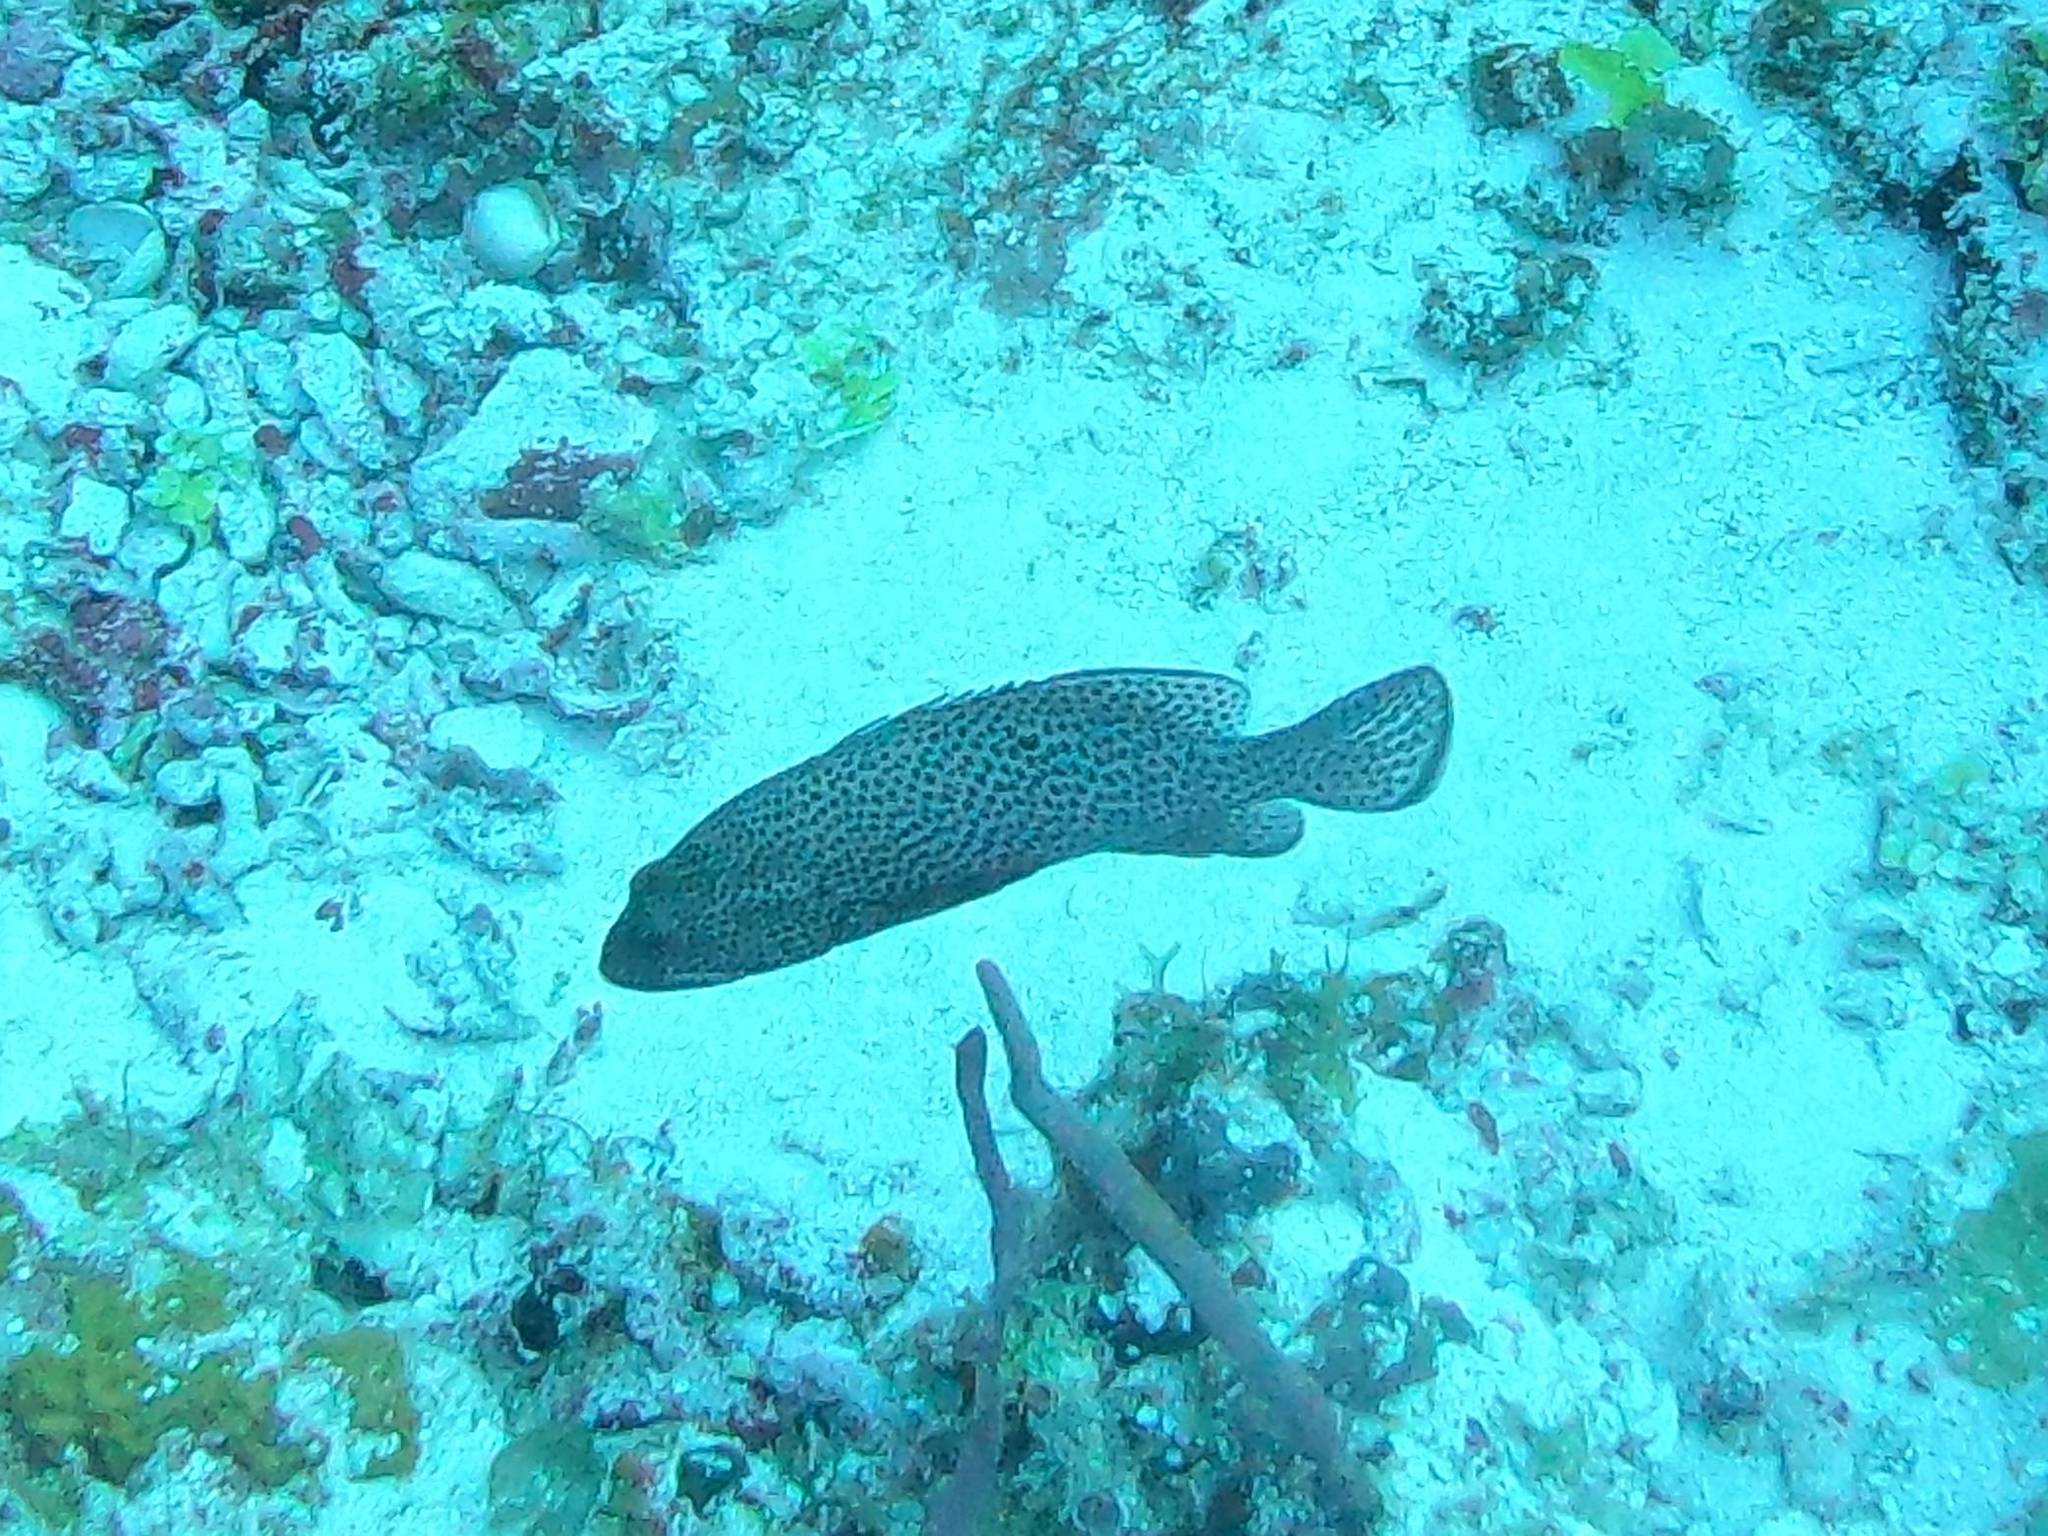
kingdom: Animalia
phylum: Chordata
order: Perciformes
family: Serranidae
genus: Cephalopholis
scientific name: Cephalopholis cruentata
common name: Graysby
